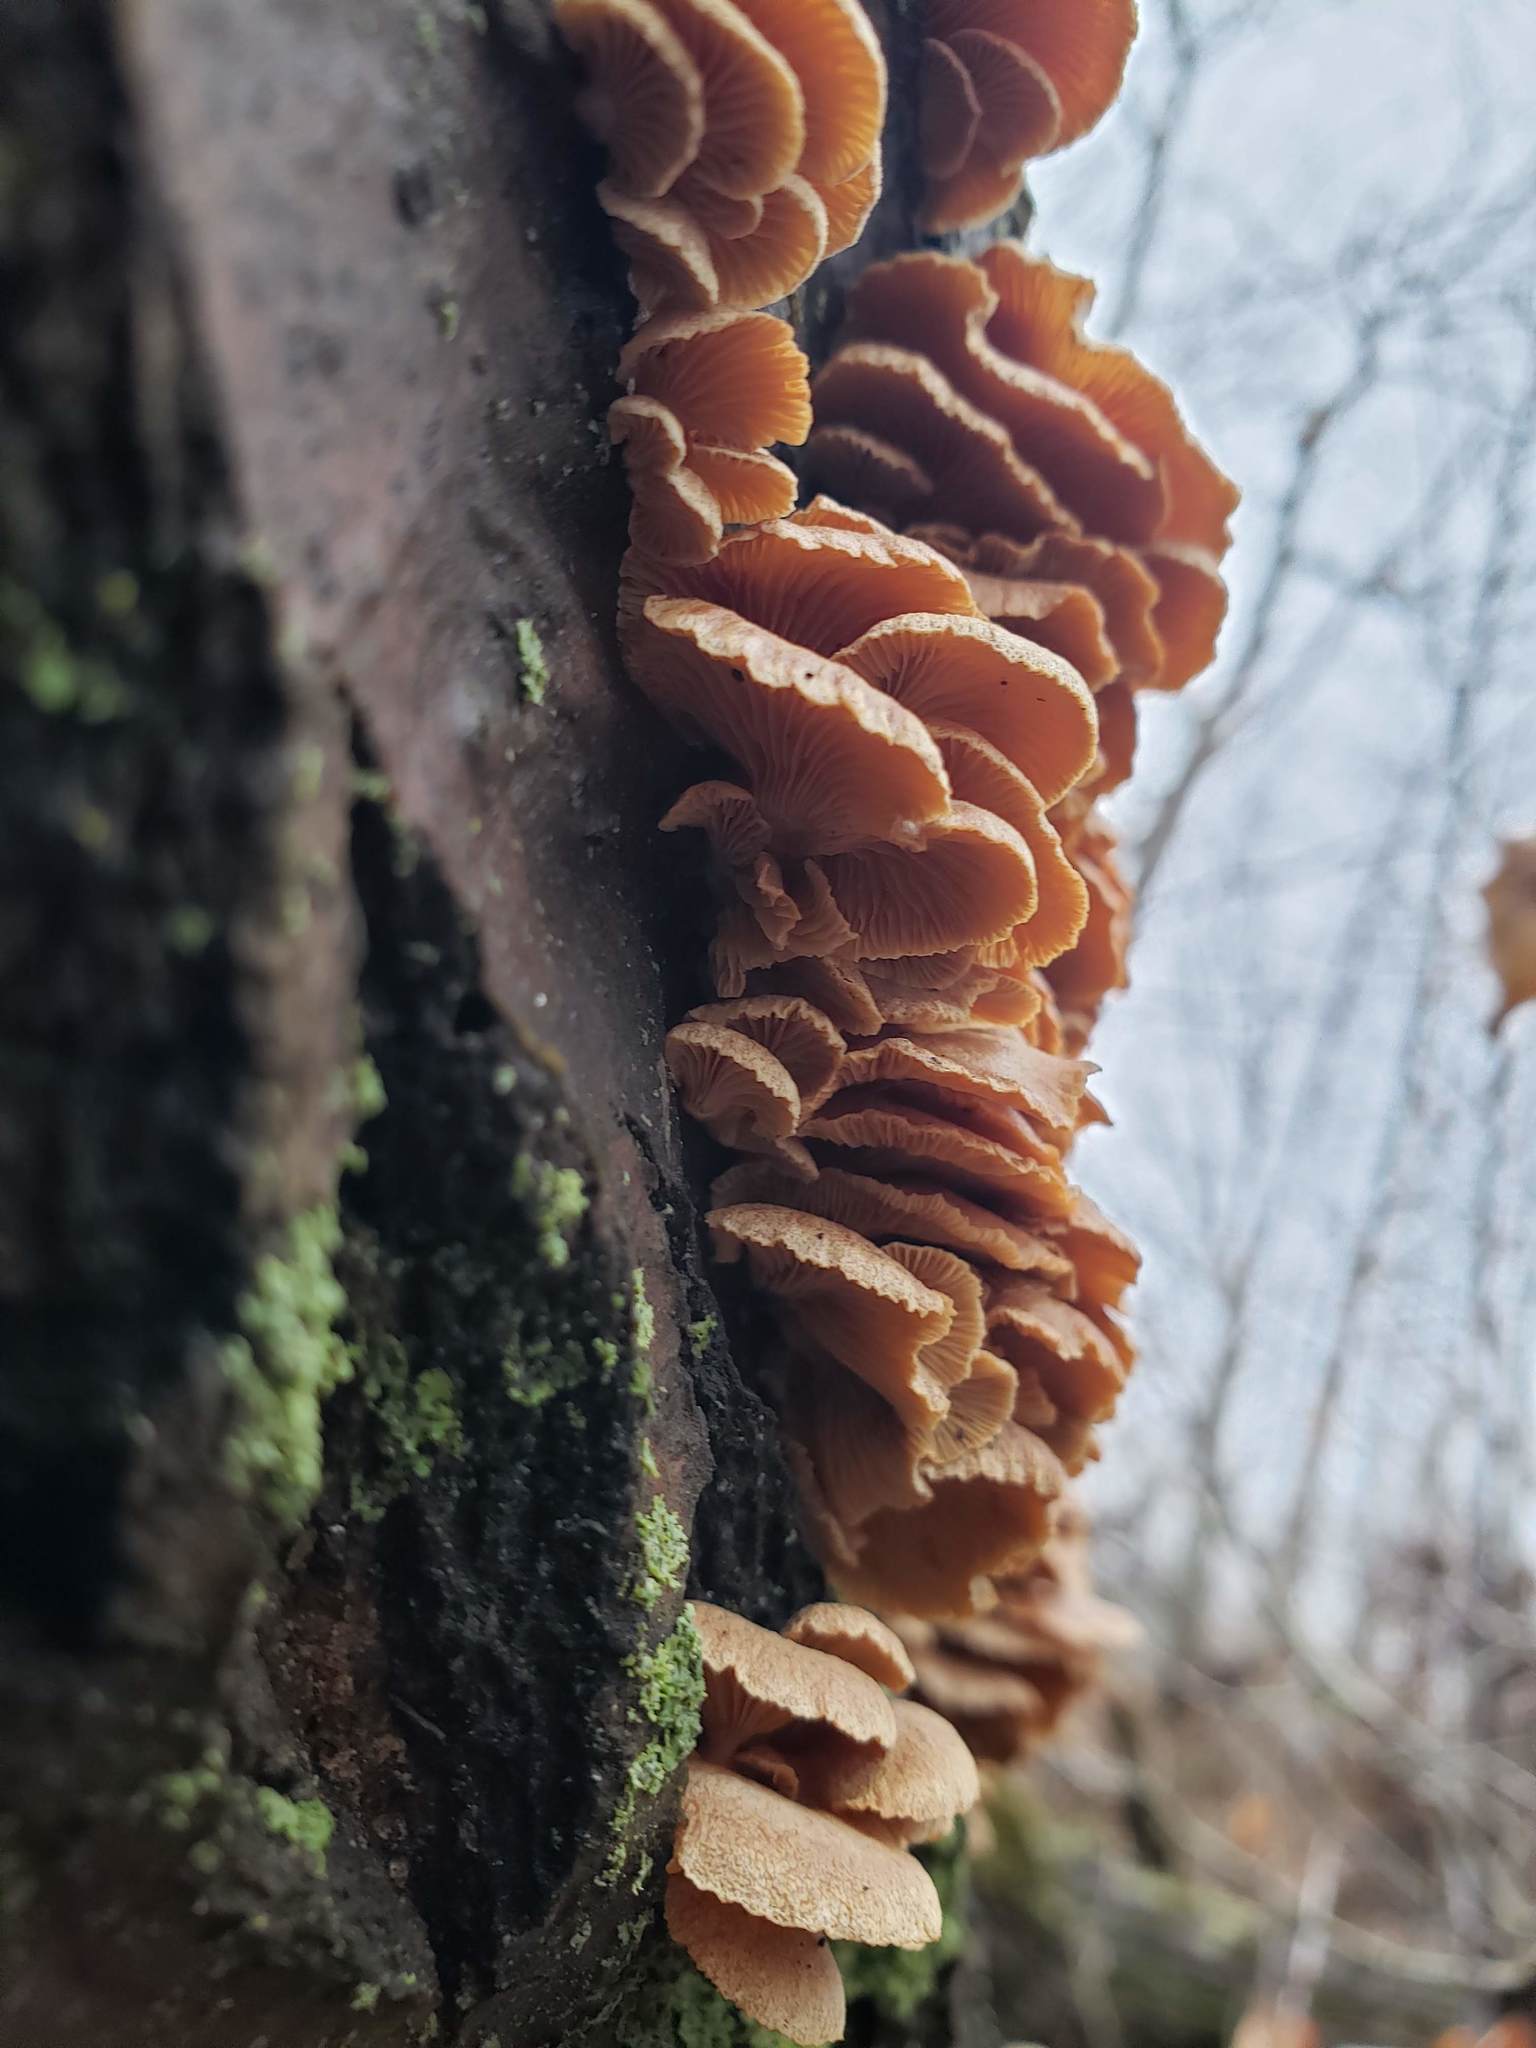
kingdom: Fungi
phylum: Basidiomycota
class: Agaricomycetes
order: Agaricales
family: Mycenaceae
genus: Panellus
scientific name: Panellus stipticus
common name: Bitter oysterling
